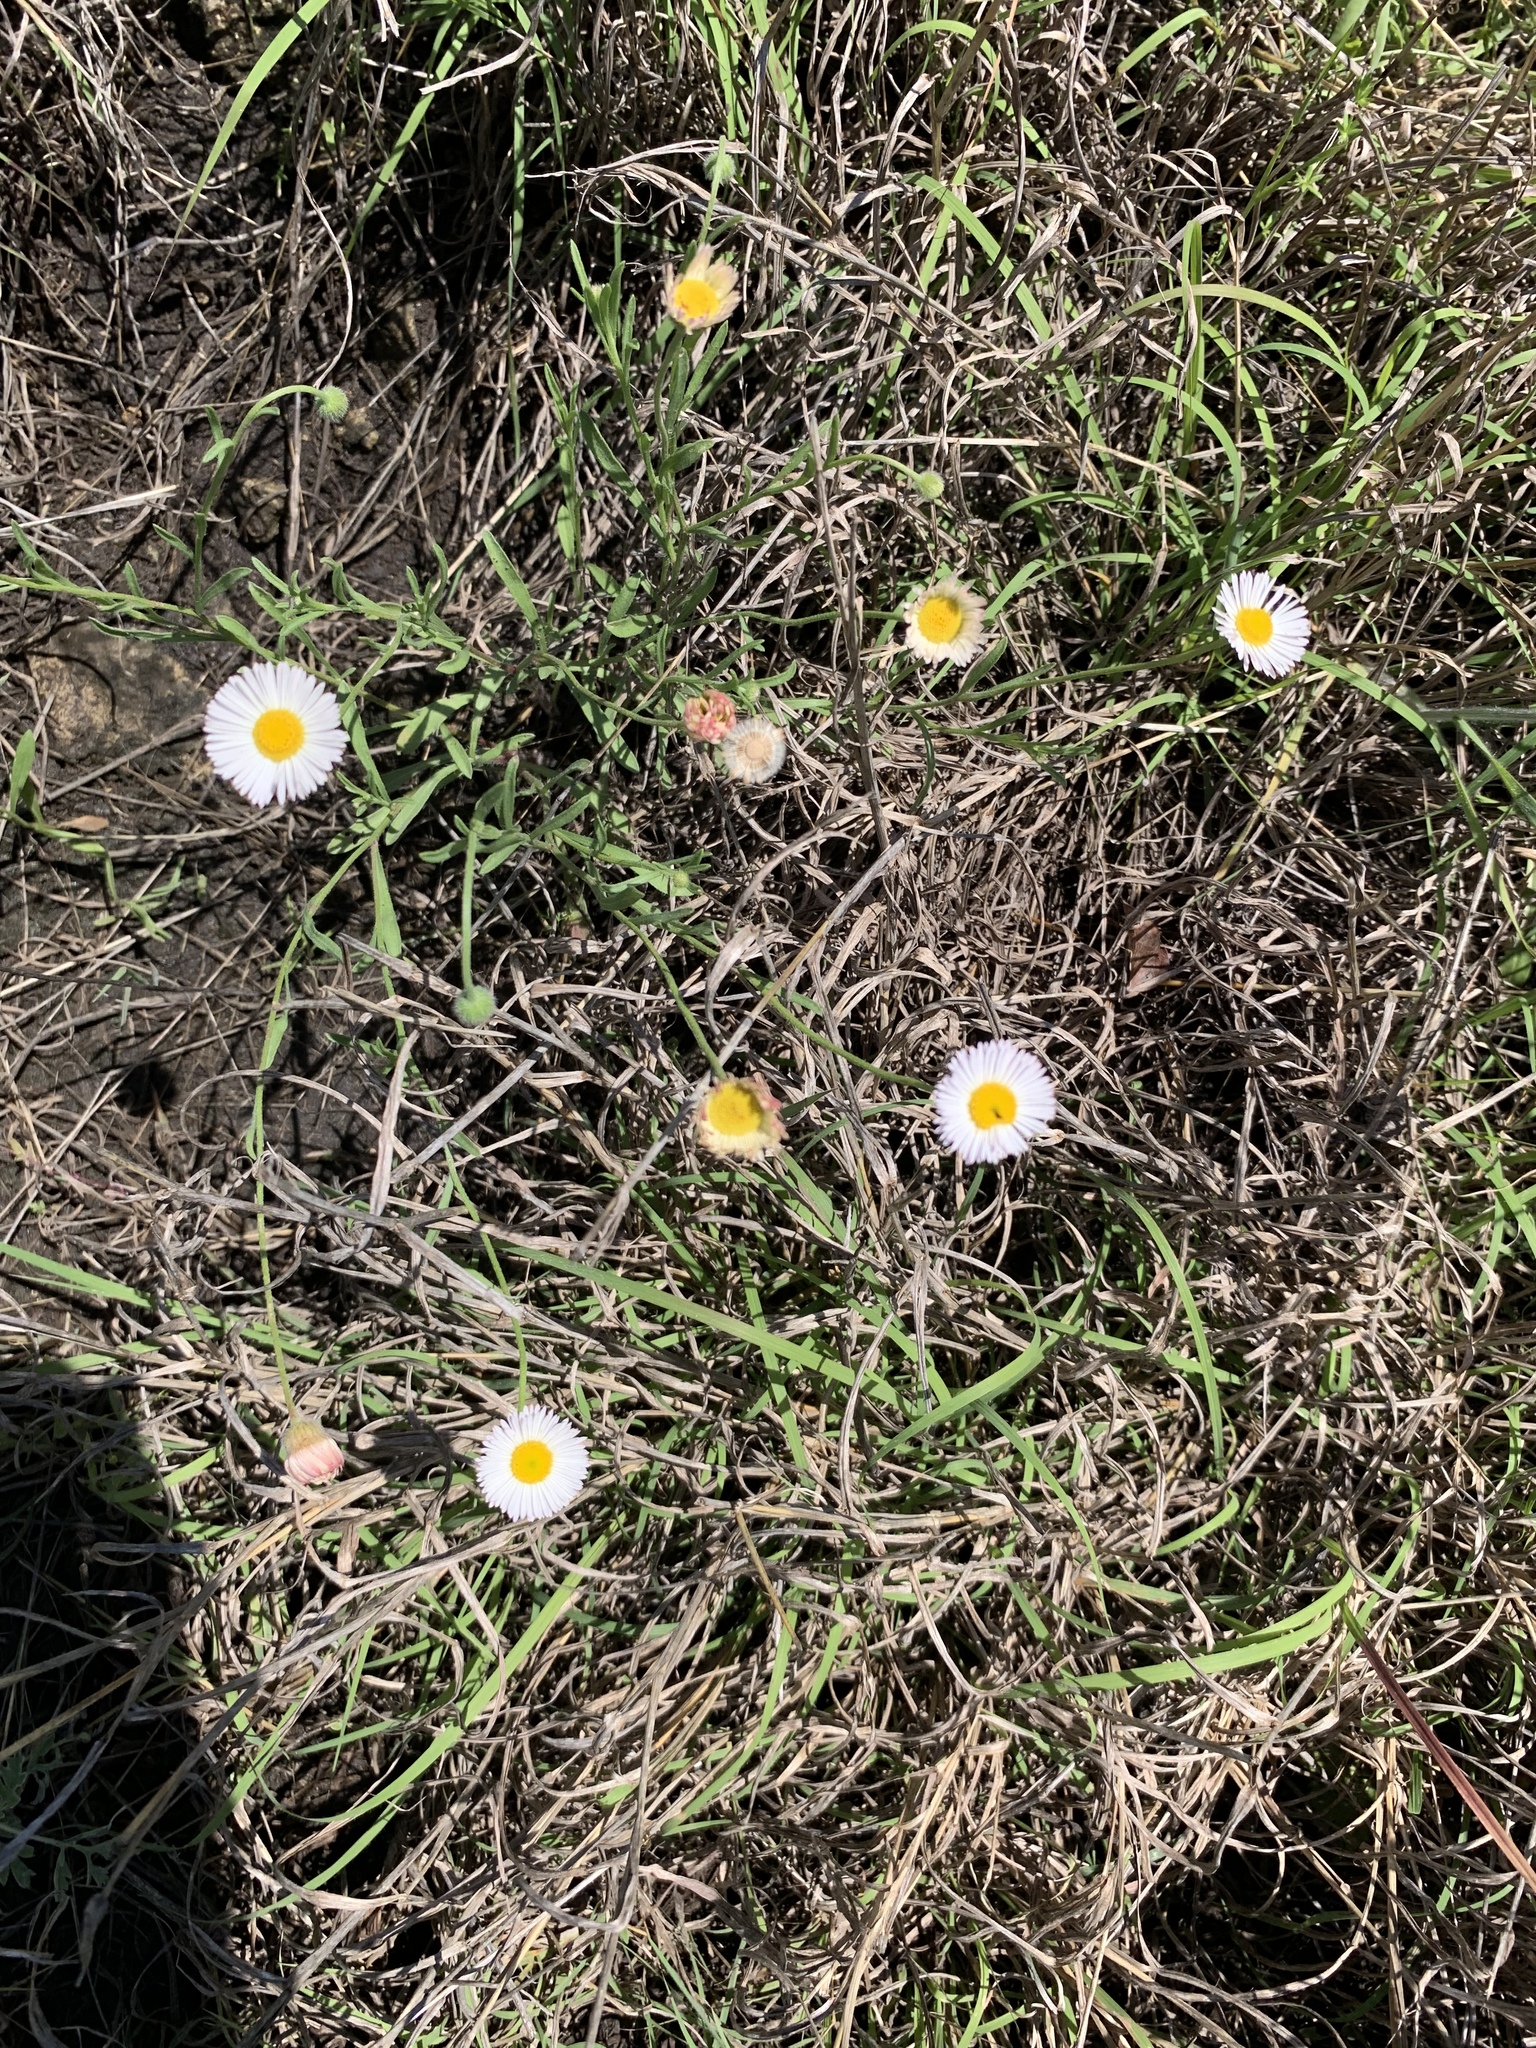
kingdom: Plantae
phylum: Tracheophyta
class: Magnoliopsida
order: Asterales
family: Asteraceae
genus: Erigeron
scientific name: Erigeron strigosus
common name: Common eastern fleabane
